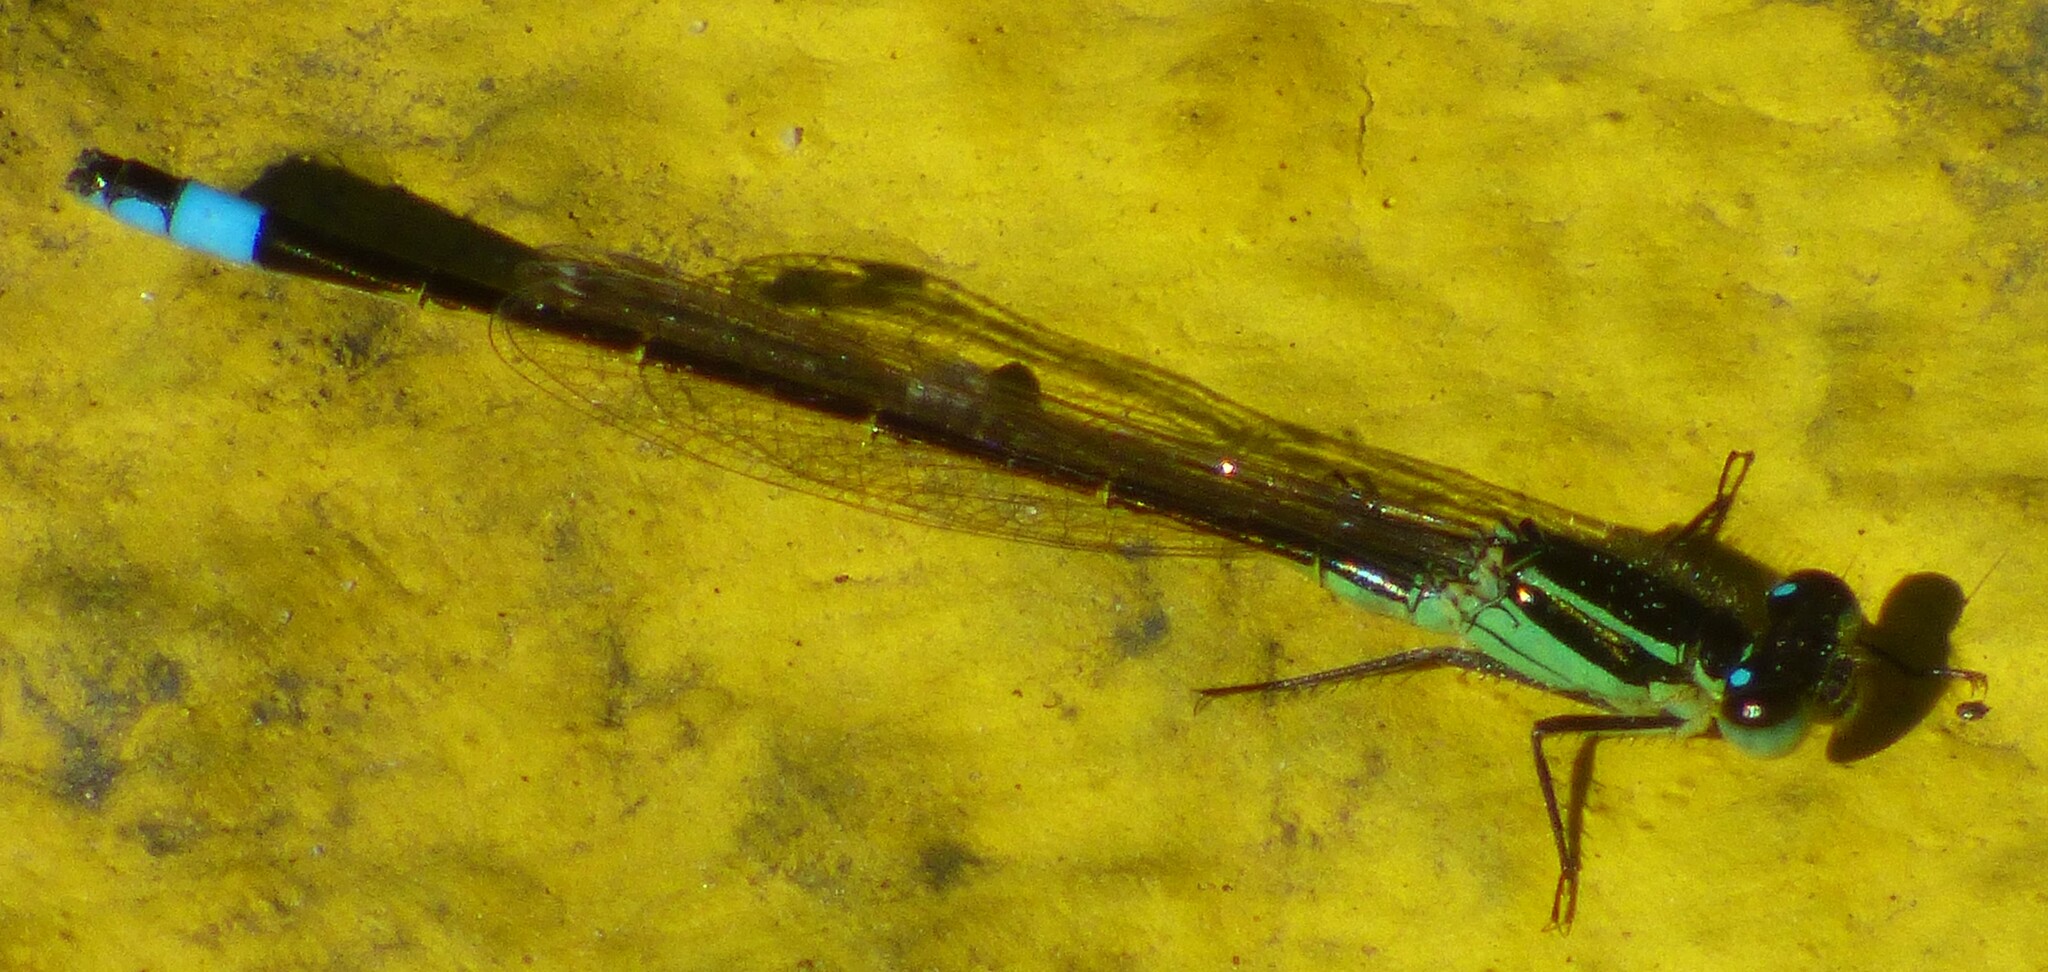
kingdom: Animalia
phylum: Arthropoda
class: Insecta
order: Odonata
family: Coenagrionidae
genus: Ischnura
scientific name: Ischnura ramburii
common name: Rambur's forktail
